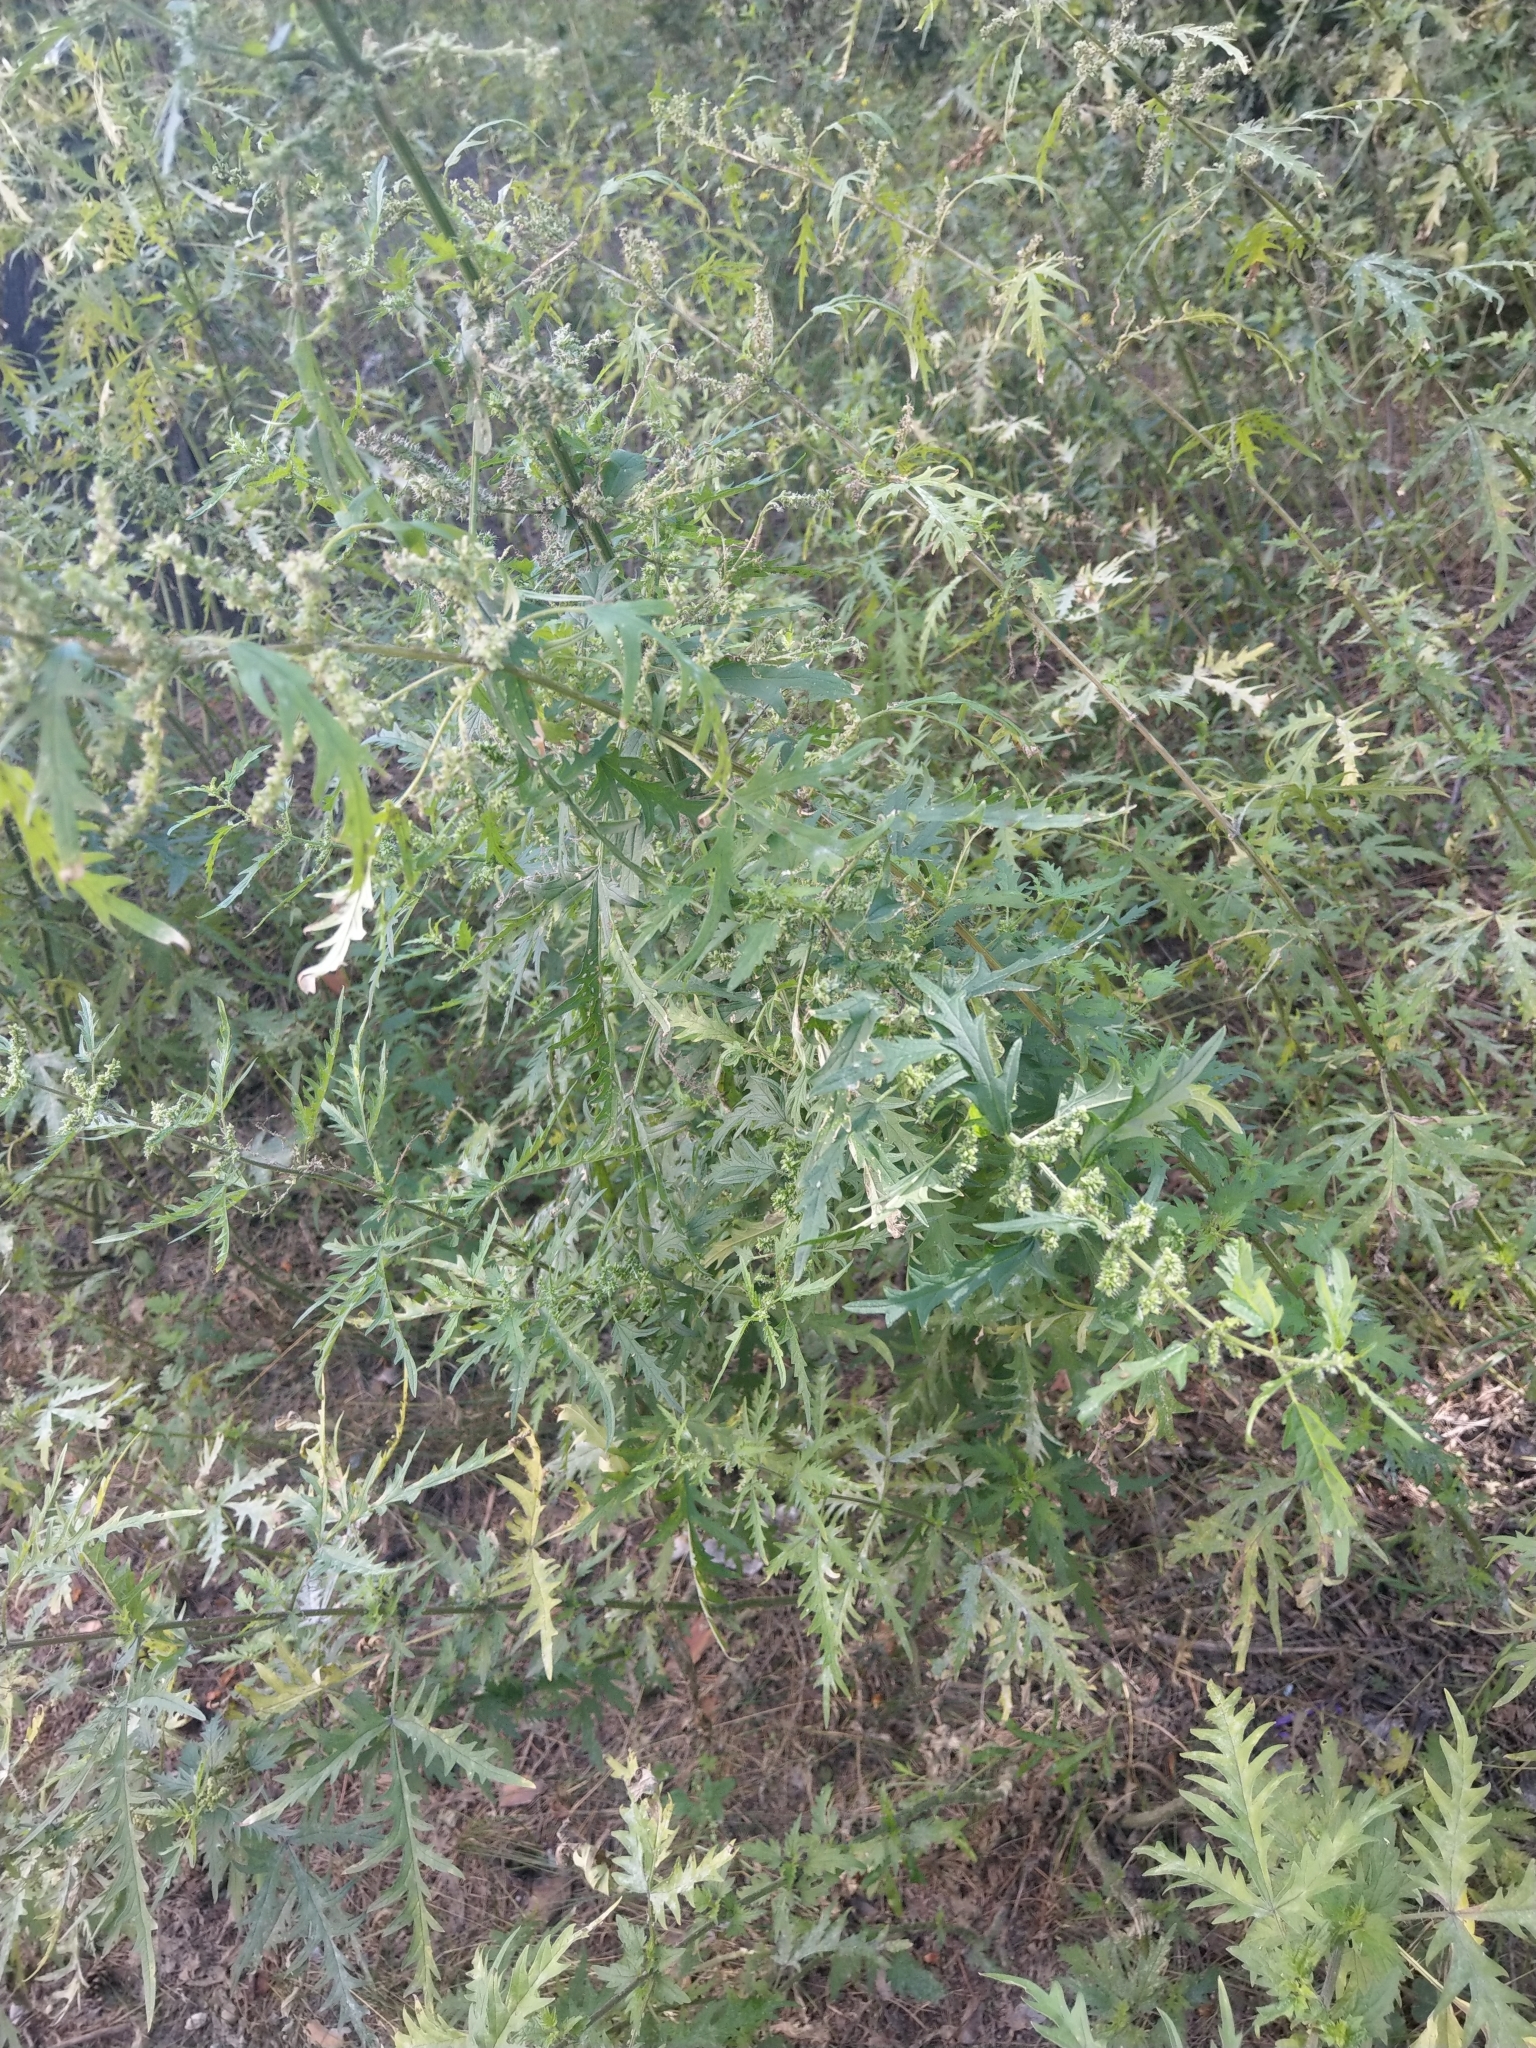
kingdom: Plantae
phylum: Tracheophyta
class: Magnoliopsida
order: Rosales
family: Urticaceae
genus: Urtica
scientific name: Urtica cannabina
